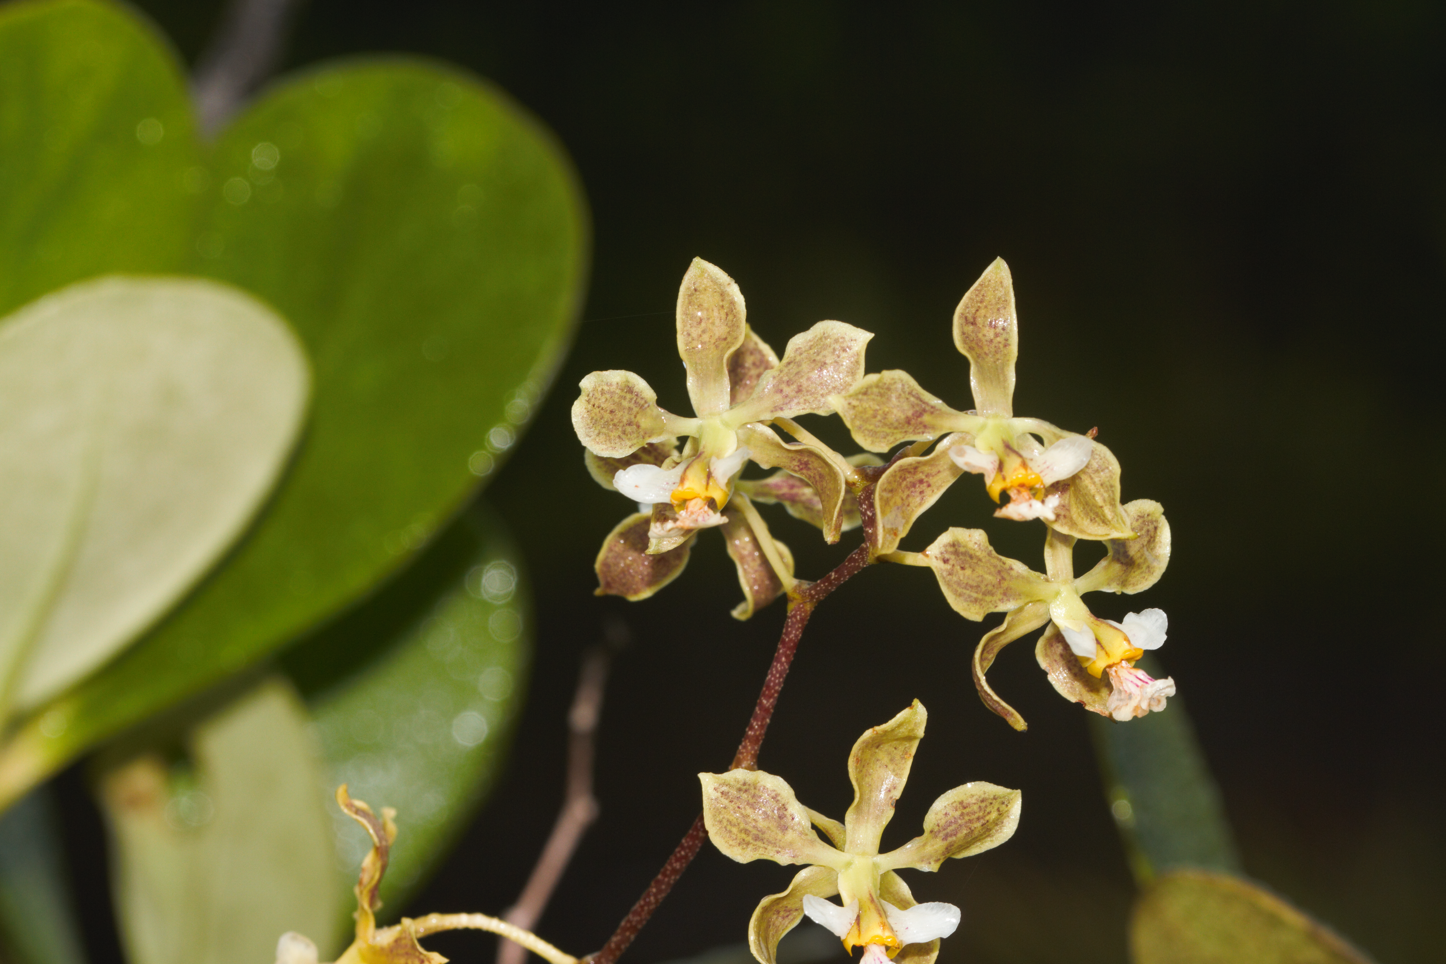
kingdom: Plantae
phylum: Tracheophyta
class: Liliopsida
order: Asparagales
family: Orchidaceae
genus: Encyclia
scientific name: Encyclia granitica
